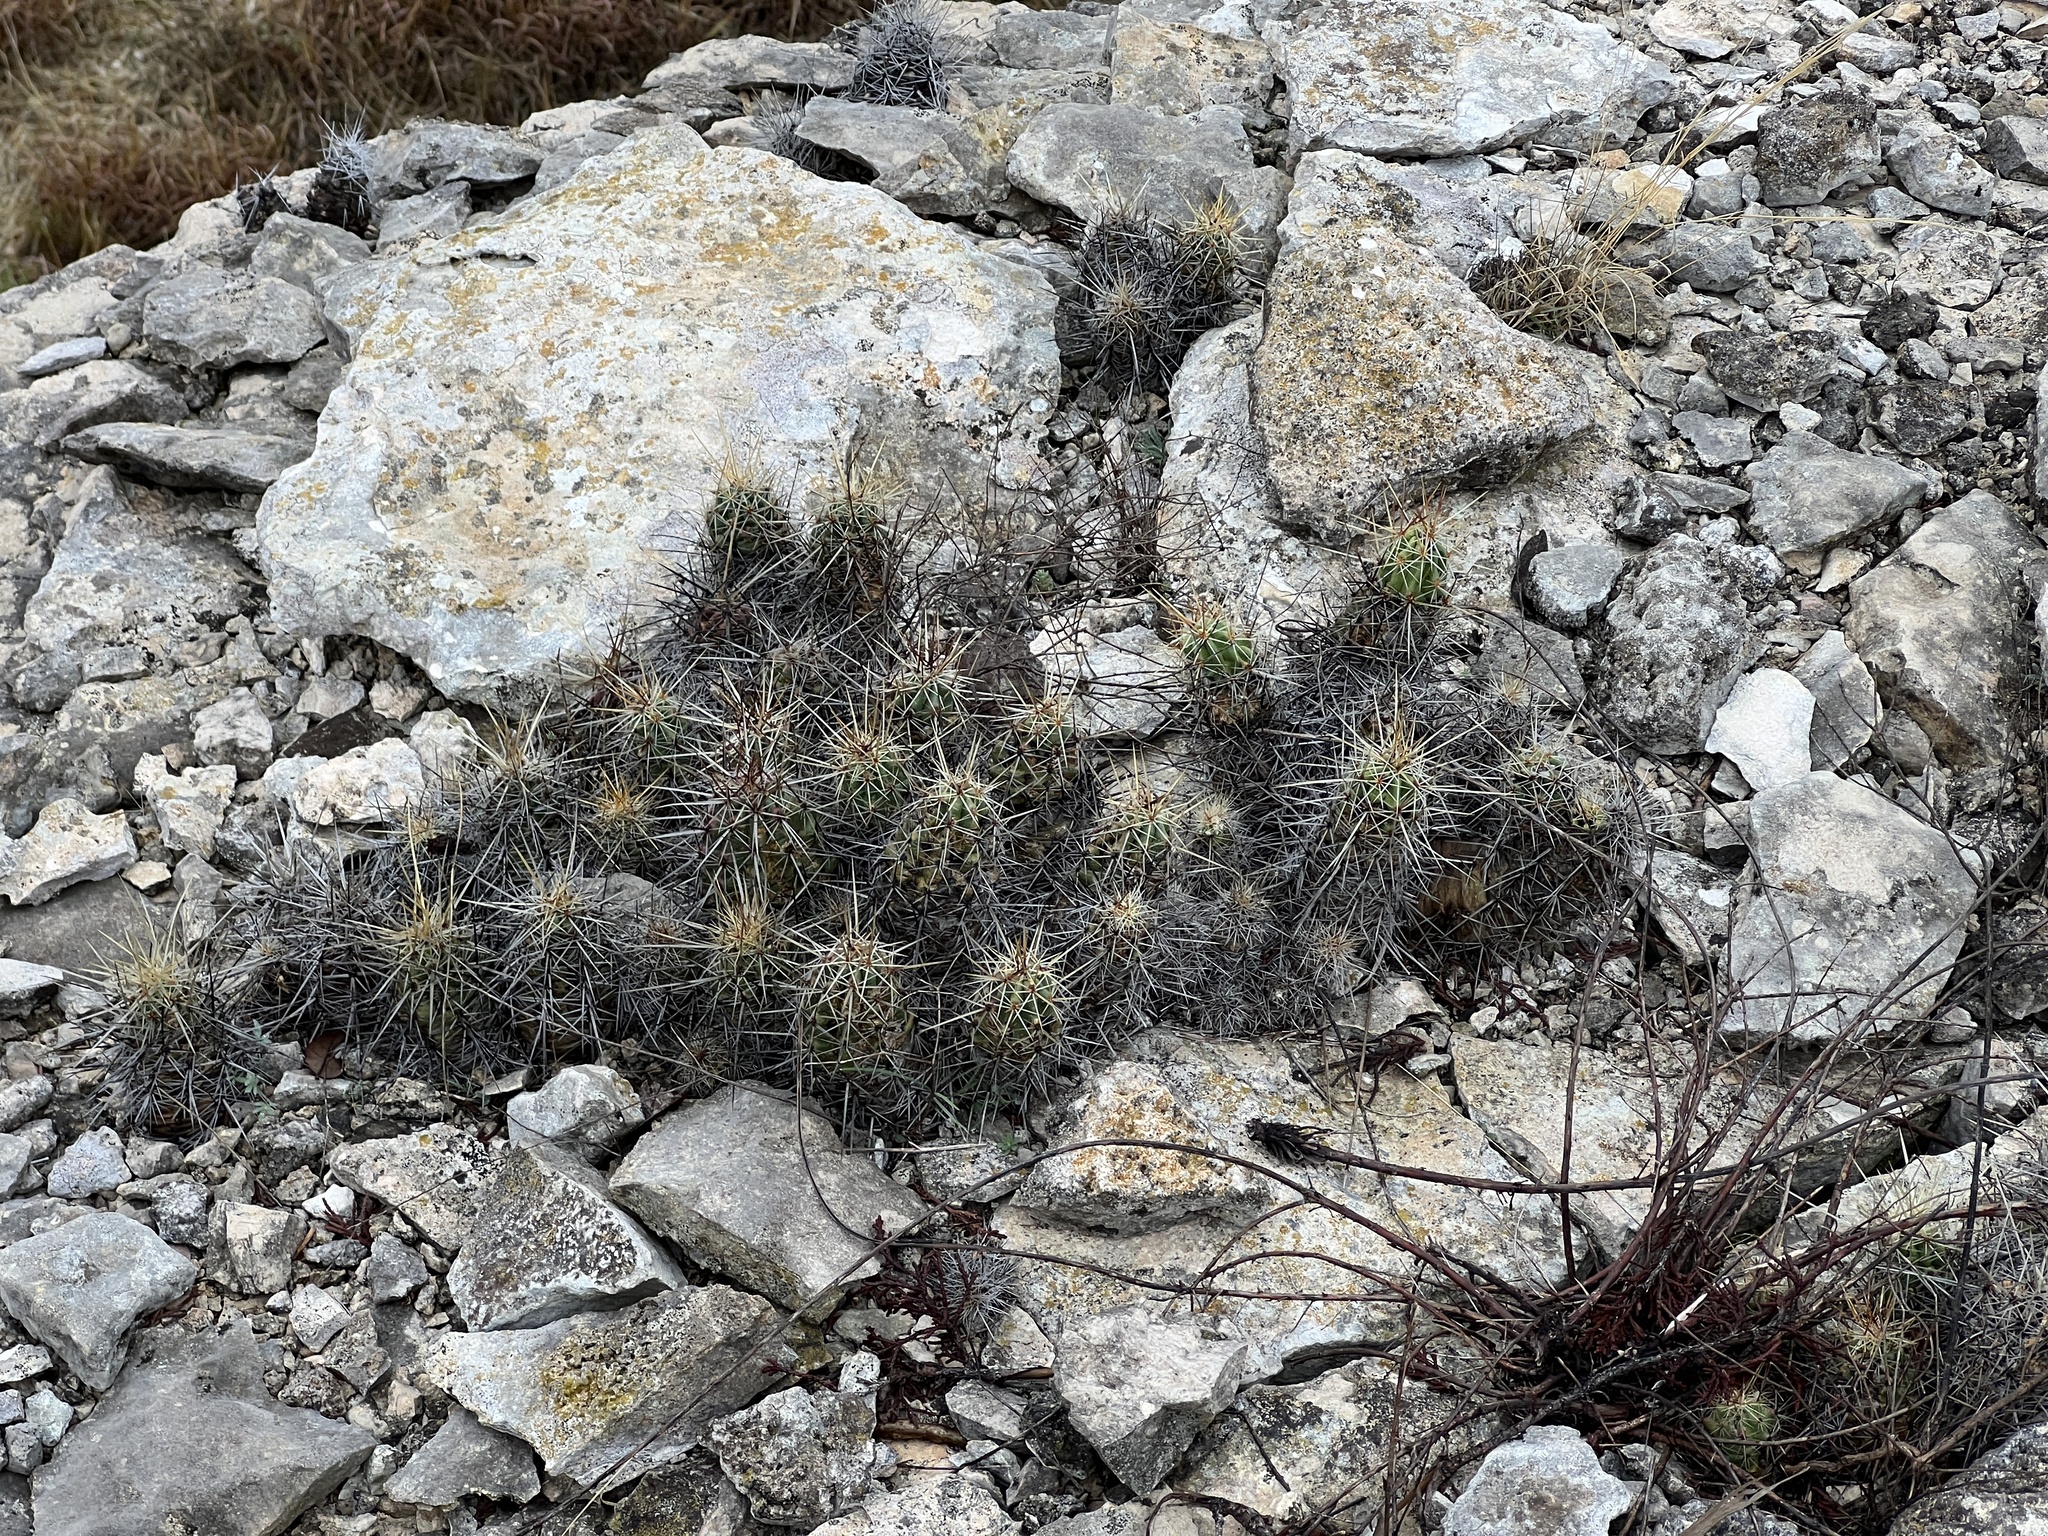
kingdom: Plantae
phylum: Tracheophyta
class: Magnoliopsida
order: Caryophyllales
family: Cactaceae
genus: Echinocereus
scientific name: Echinocereus enneacanthus
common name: Pitaya
